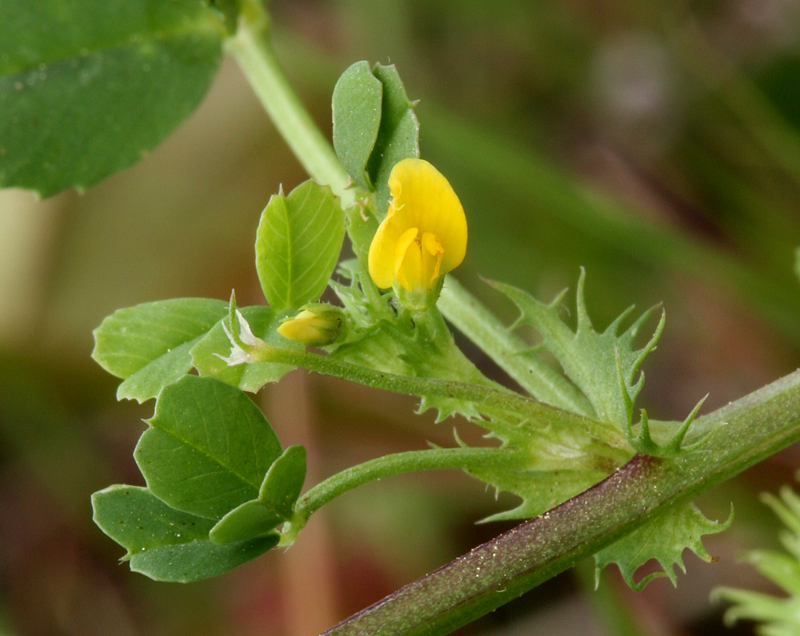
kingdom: Plantae
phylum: Tracheophyta
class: Magnoliopsida
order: Fabales
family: Fabaceae
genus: Medicago
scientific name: Medicago polymorpha
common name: Burclover
